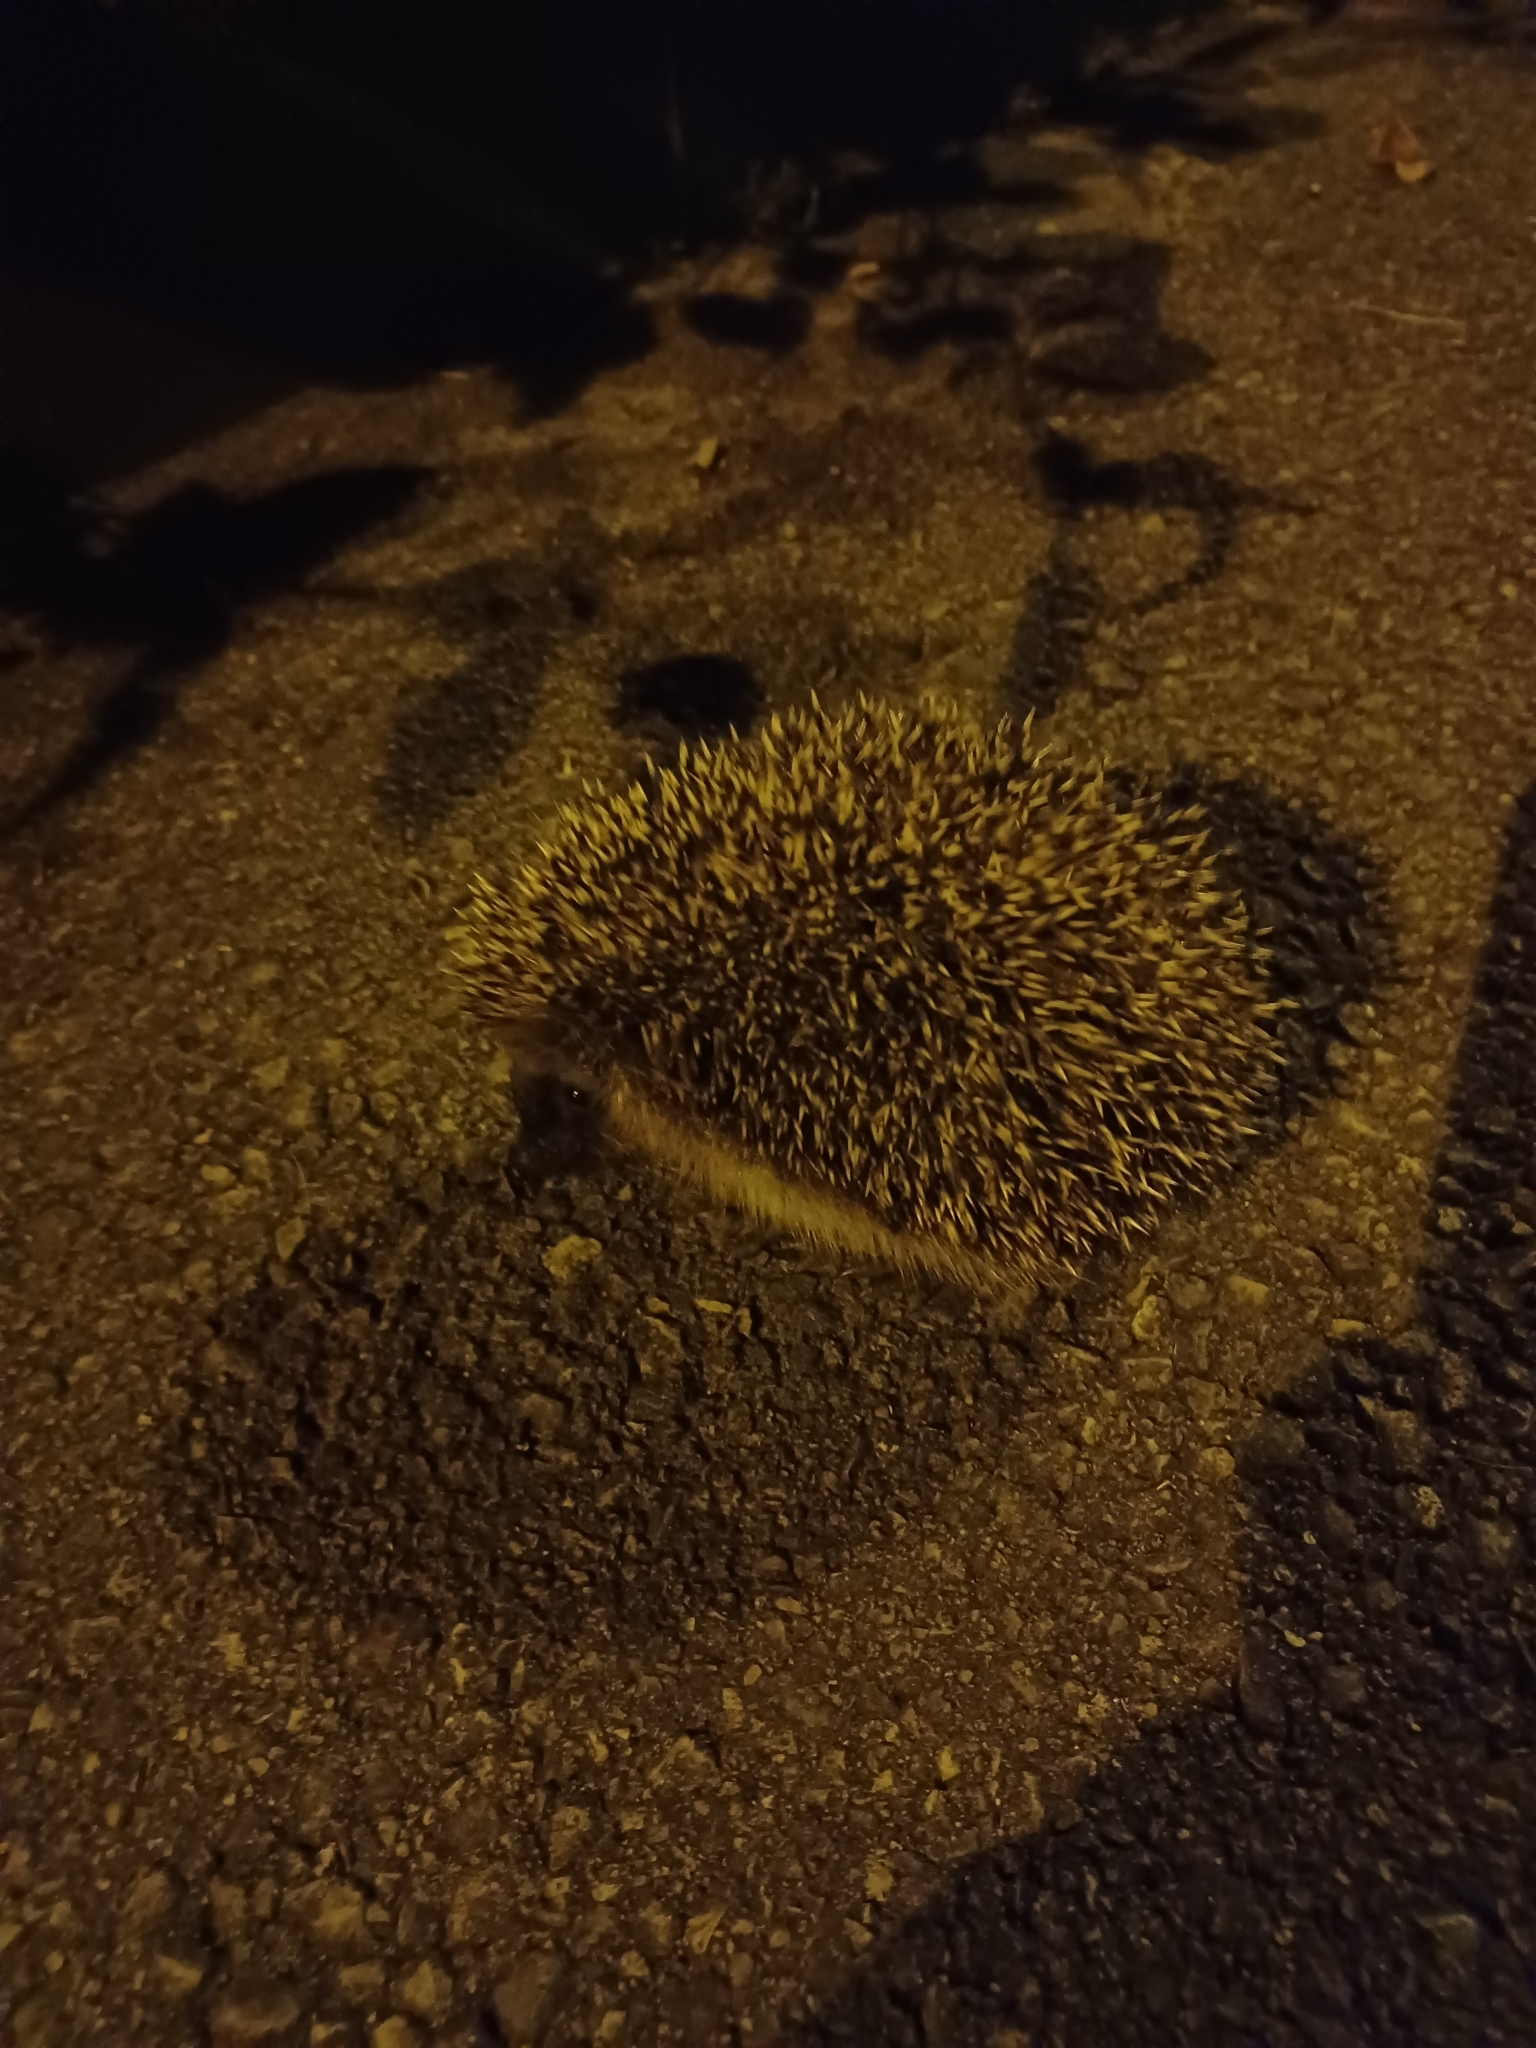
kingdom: Animalia
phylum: Chordata
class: Mammalia
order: Erinaceomorpha
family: Erinaceidae
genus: Erinaceus
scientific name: Erinaceus europaeus
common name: West european hedgehog
